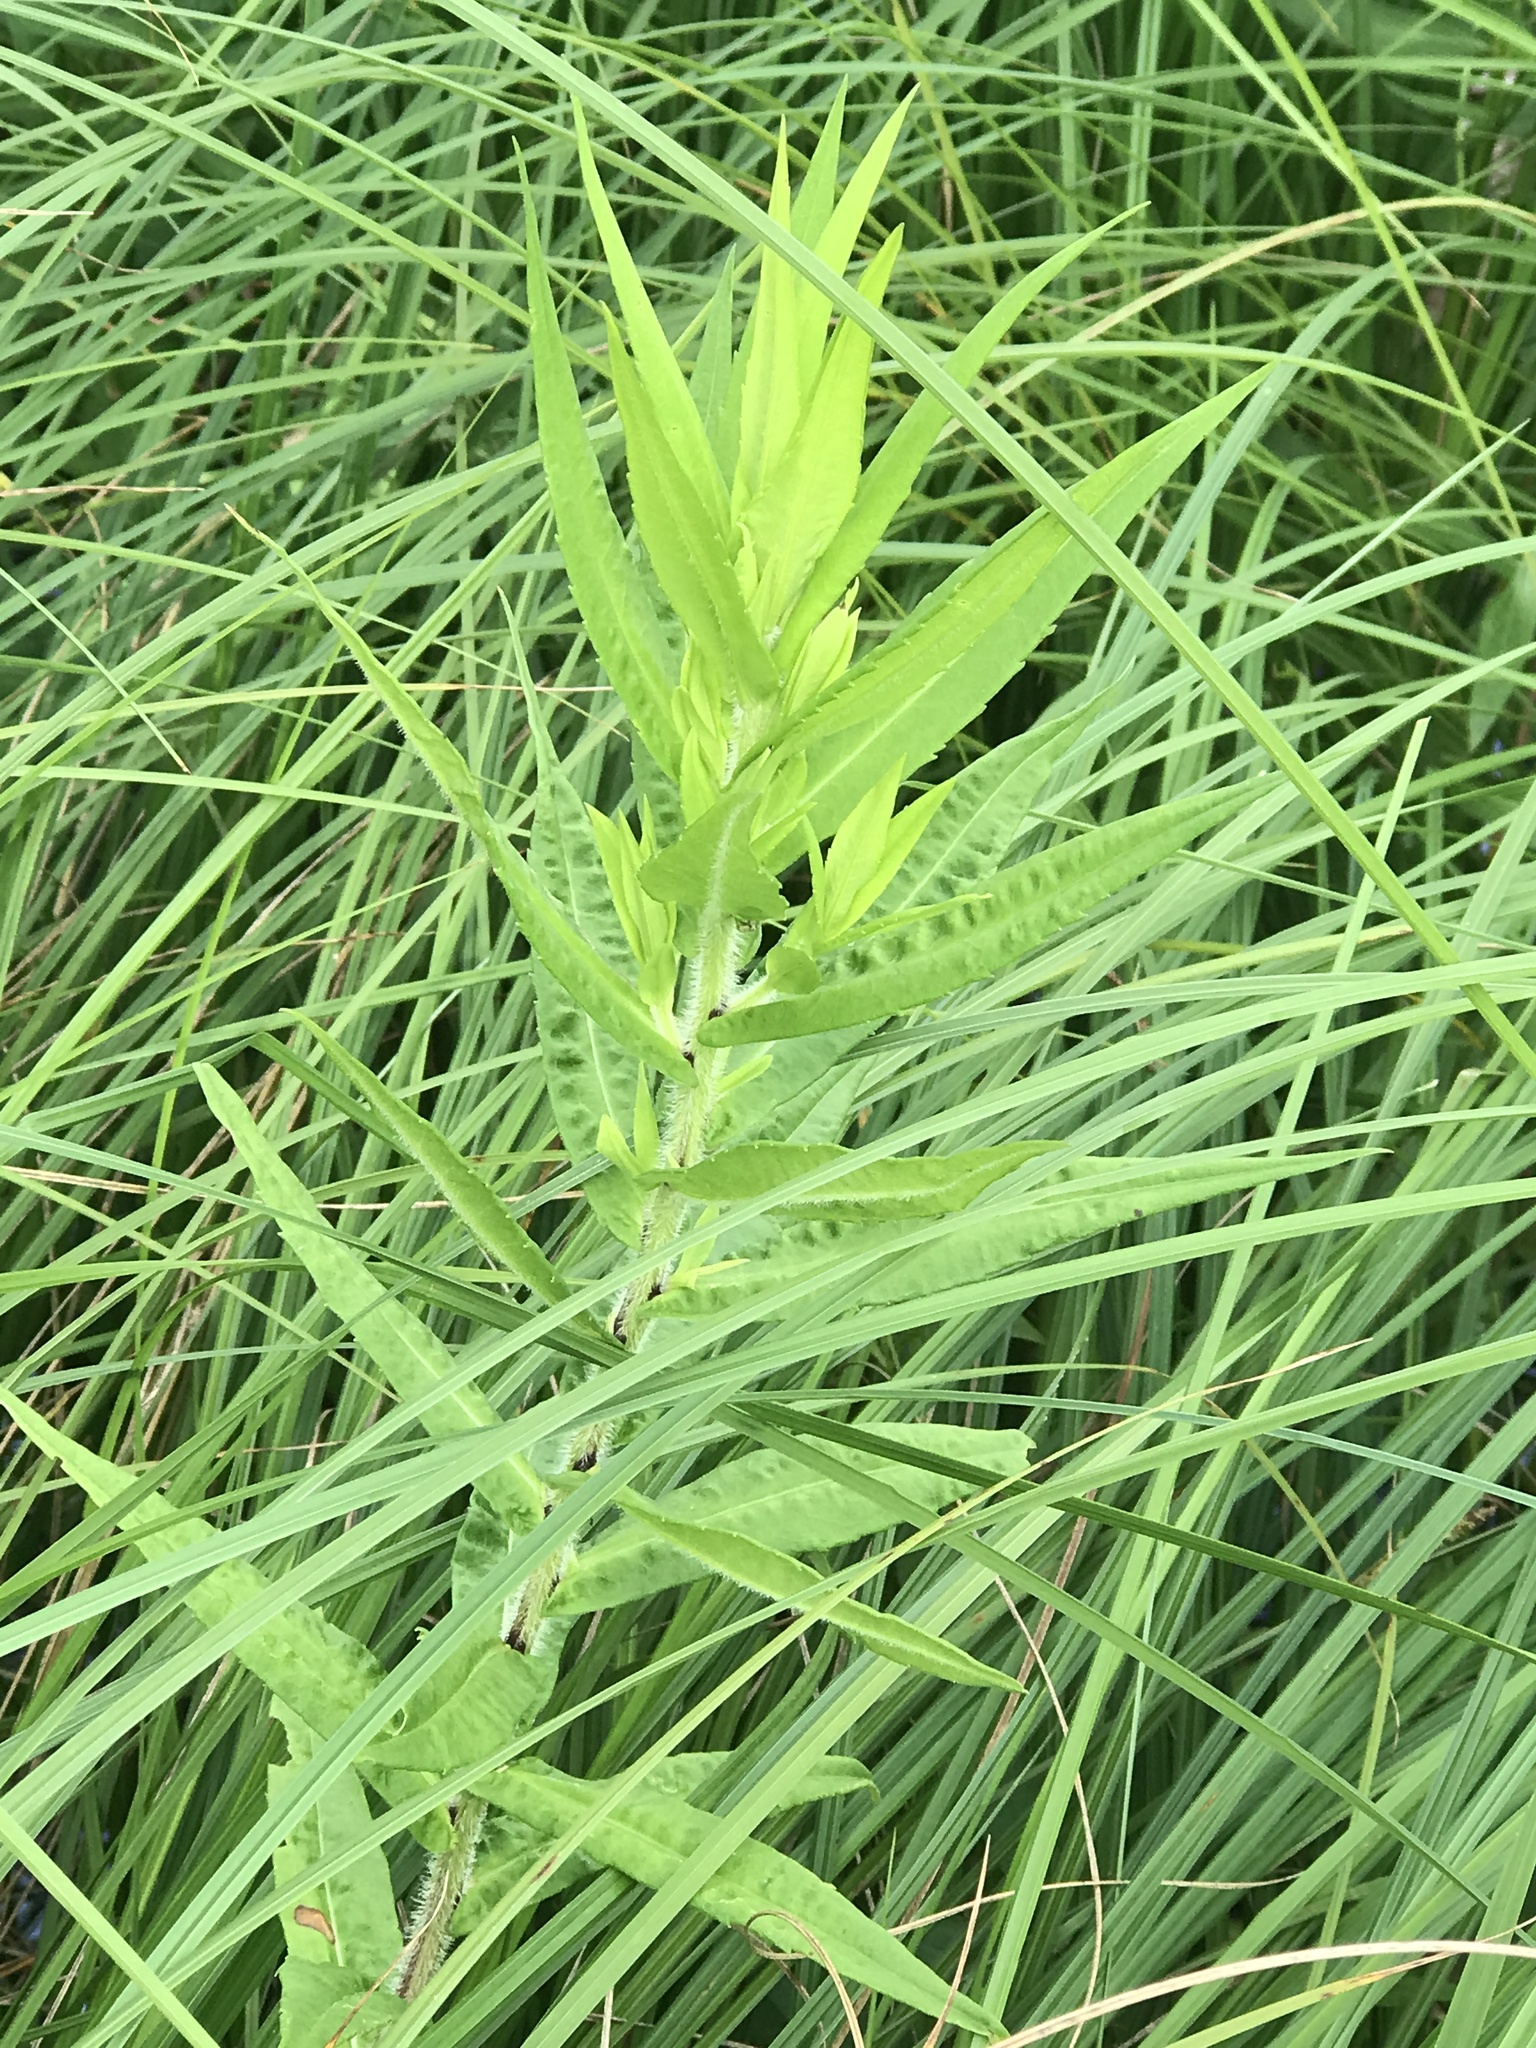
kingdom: Plantae
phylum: Tracheophyta
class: Magnoliopsida
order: Myrtales
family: Lythraceae
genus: Lythrum
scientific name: Lythrum salicaria
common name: Purple loosestrife
